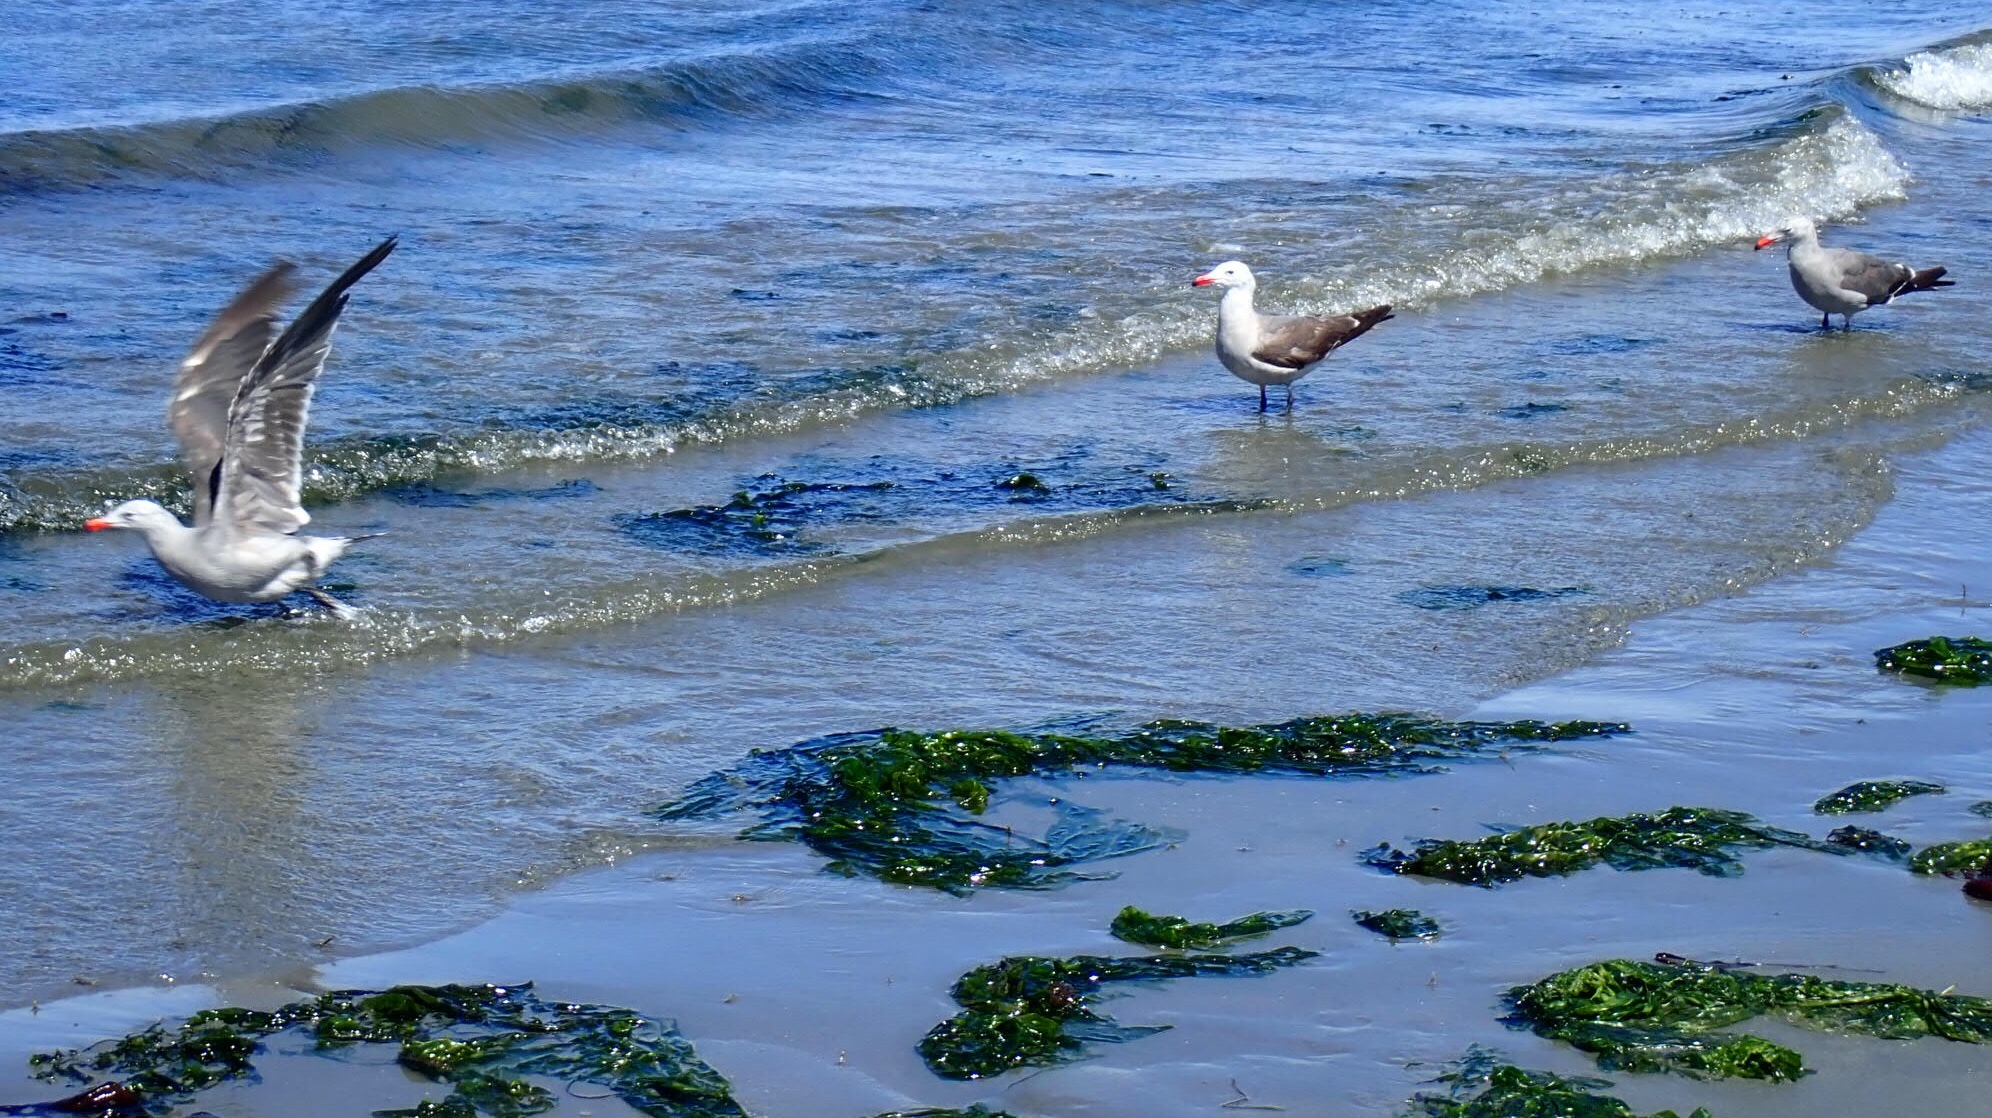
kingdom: Animalia
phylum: Chordata
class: Aves
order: Charadriiformes
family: Laridae
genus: Larus
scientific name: Larus heermanni
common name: Heermann's gull
